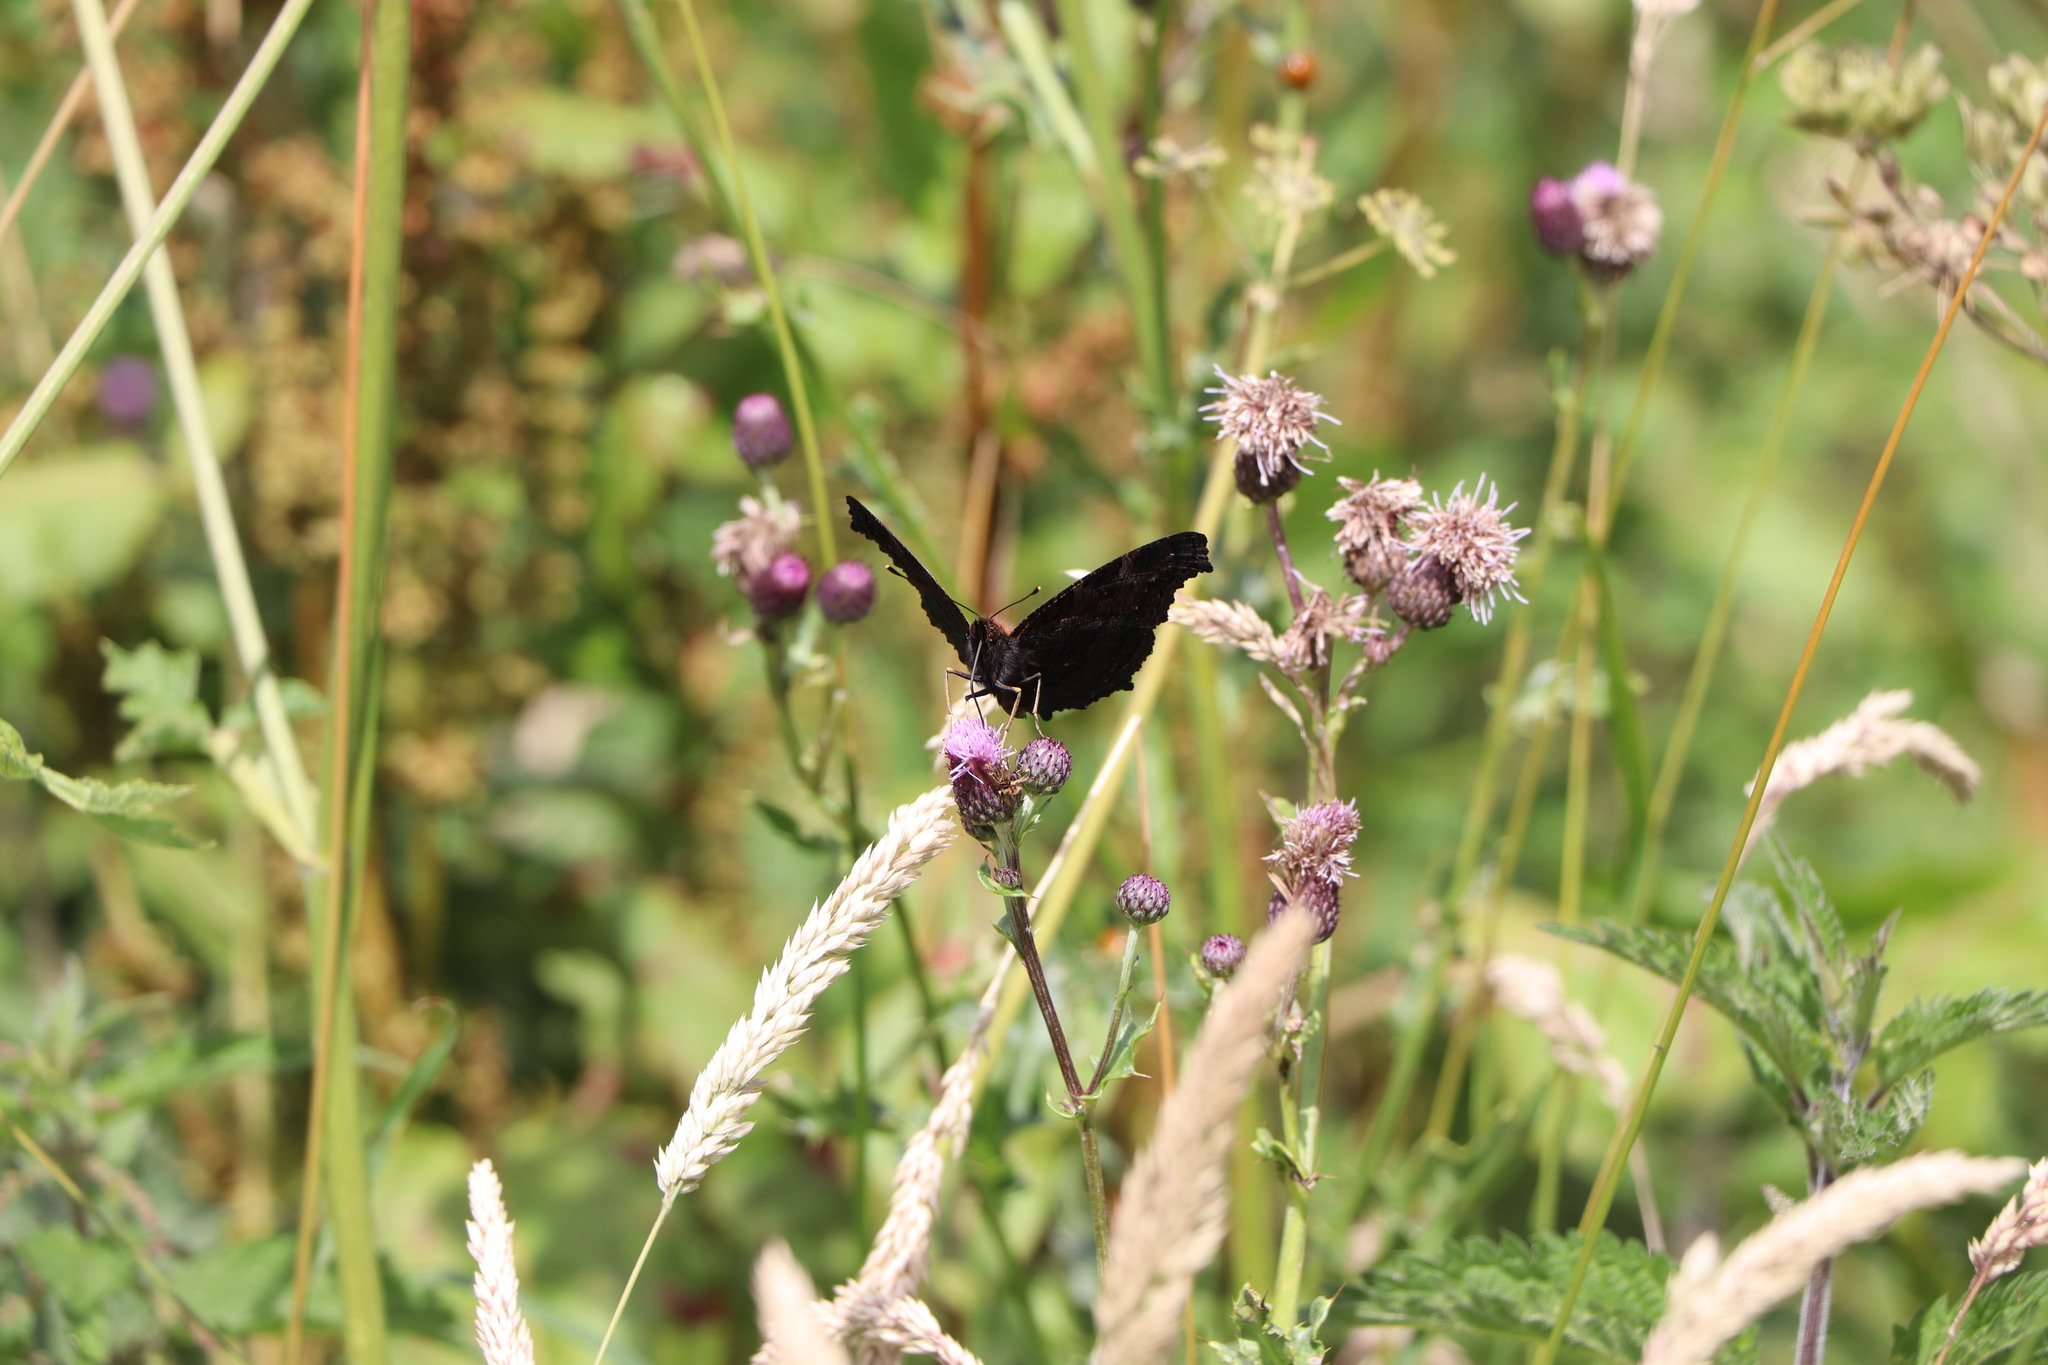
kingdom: Animalia
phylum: Arthropoda
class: Insecta
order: Lepidoptera
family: Nymphalidae
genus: Aglais
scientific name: Aglais io
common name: Peacock
